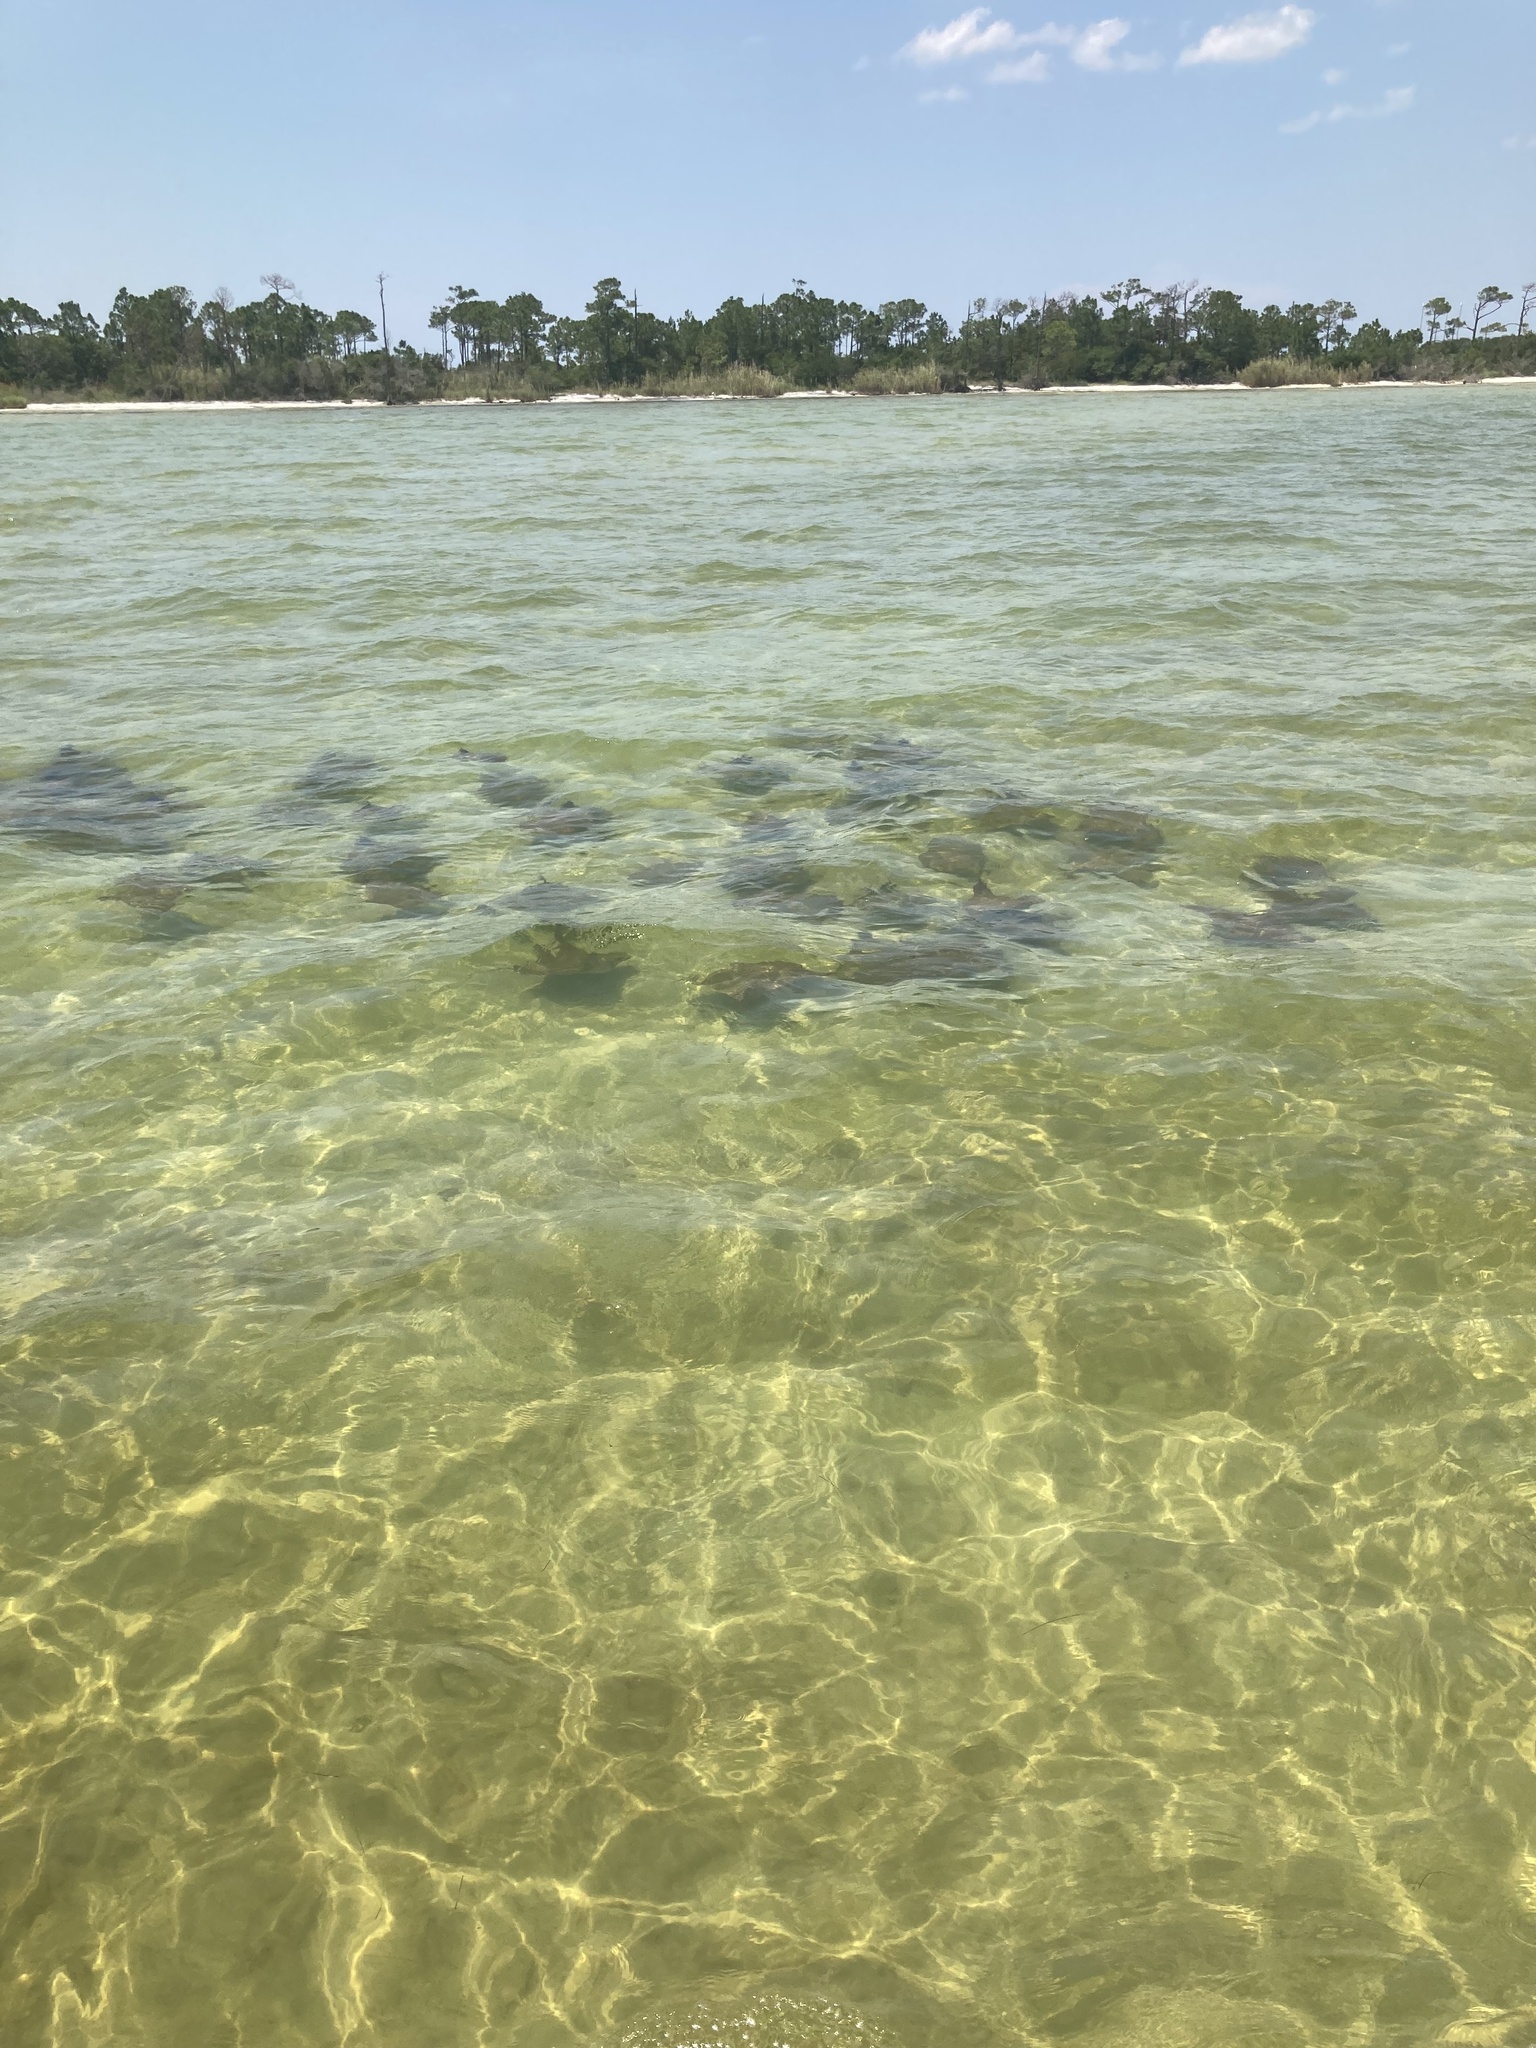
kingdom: Animalia
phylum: Chordata
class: Elasmobranchii
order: Myliobatiformes
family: Myliobatidae
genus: Rhinoptera
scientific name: Rhinoptera bonasus
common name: Cownose ray
